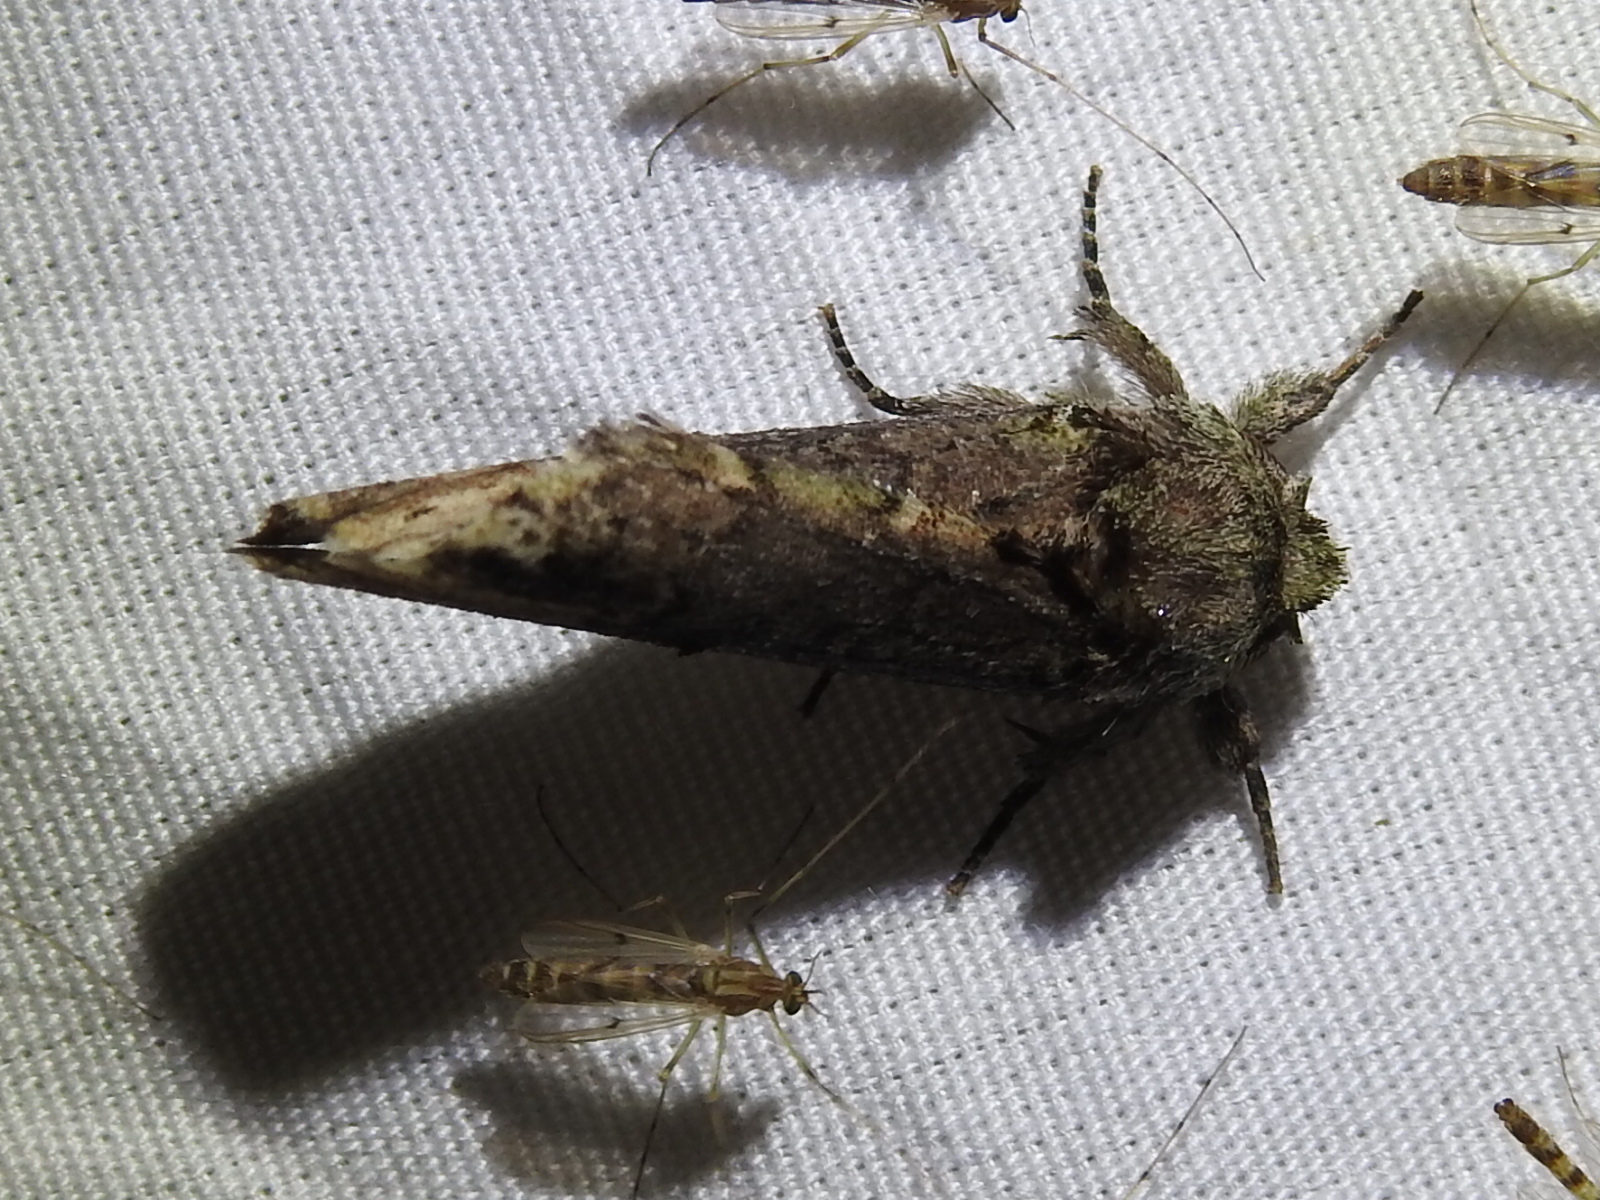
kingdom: Animalia
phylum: Arthropoda
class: Insecta
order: Lepidoptera
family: Notodontidae
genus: Schizura
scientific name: Schizura
